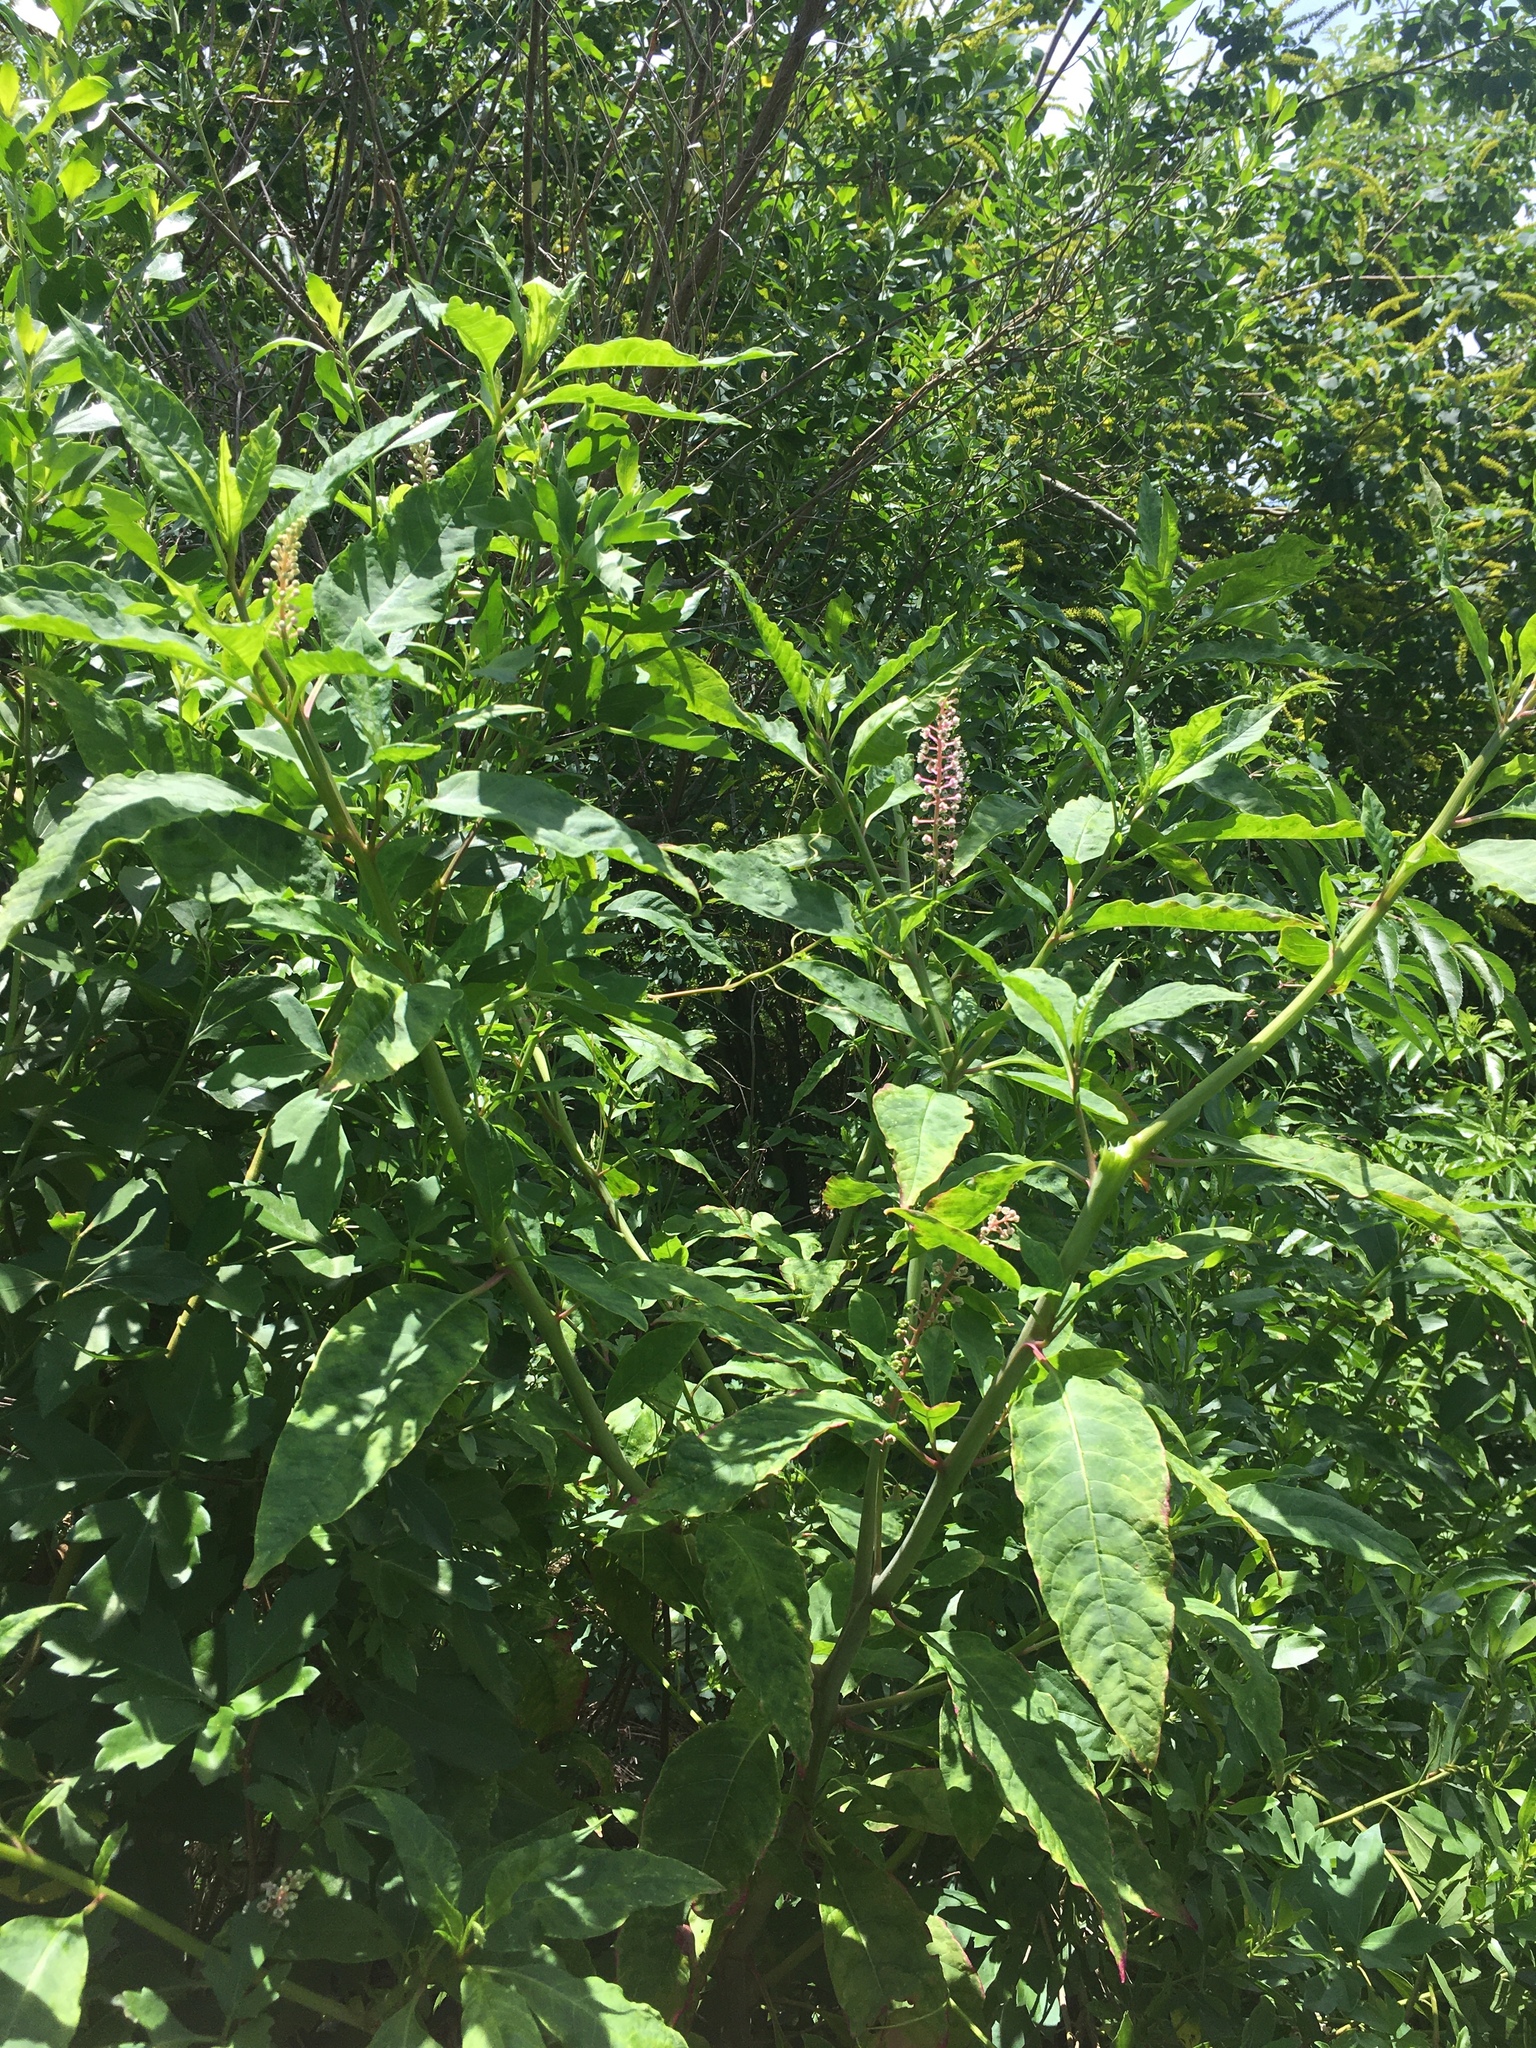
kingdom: Plantae
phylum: Tracheophyta
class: Magnoliopsida
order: Caryophyllales
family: Phytolaccaceae
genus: Phytolacca
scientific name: Phytolacca americana
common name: American pokeweed
